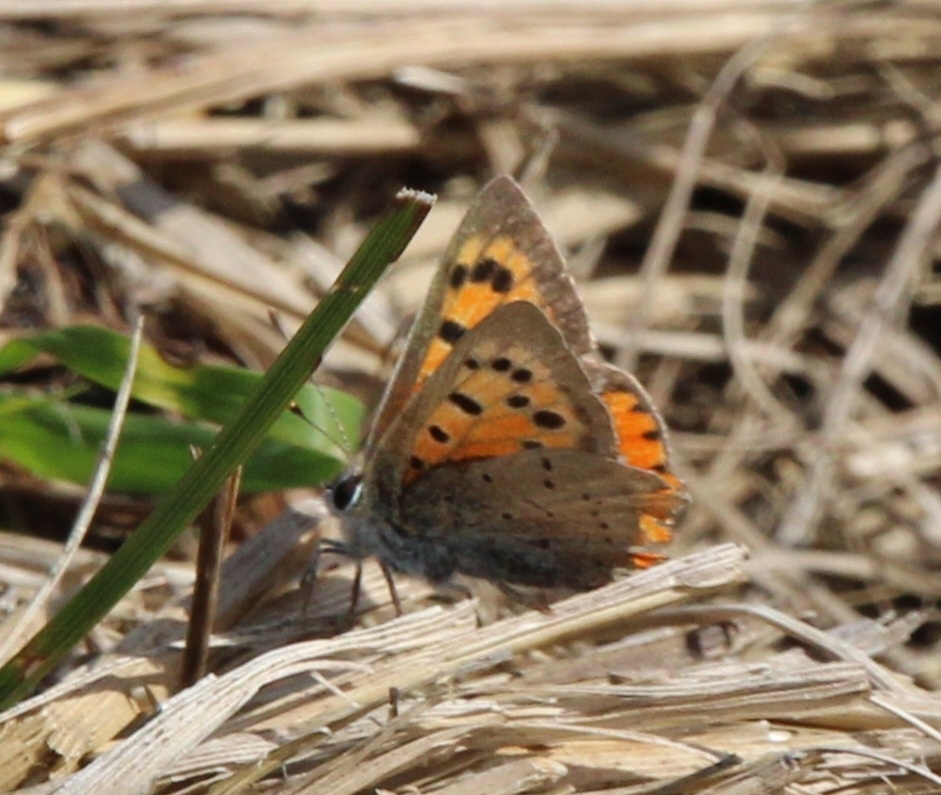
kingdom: Animalia
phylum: Arthropoda
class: Insecta
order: Lepidoptera
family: Lycaenidae
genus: Lycaena
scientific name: Lycaena phlaeas
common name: Small copper
